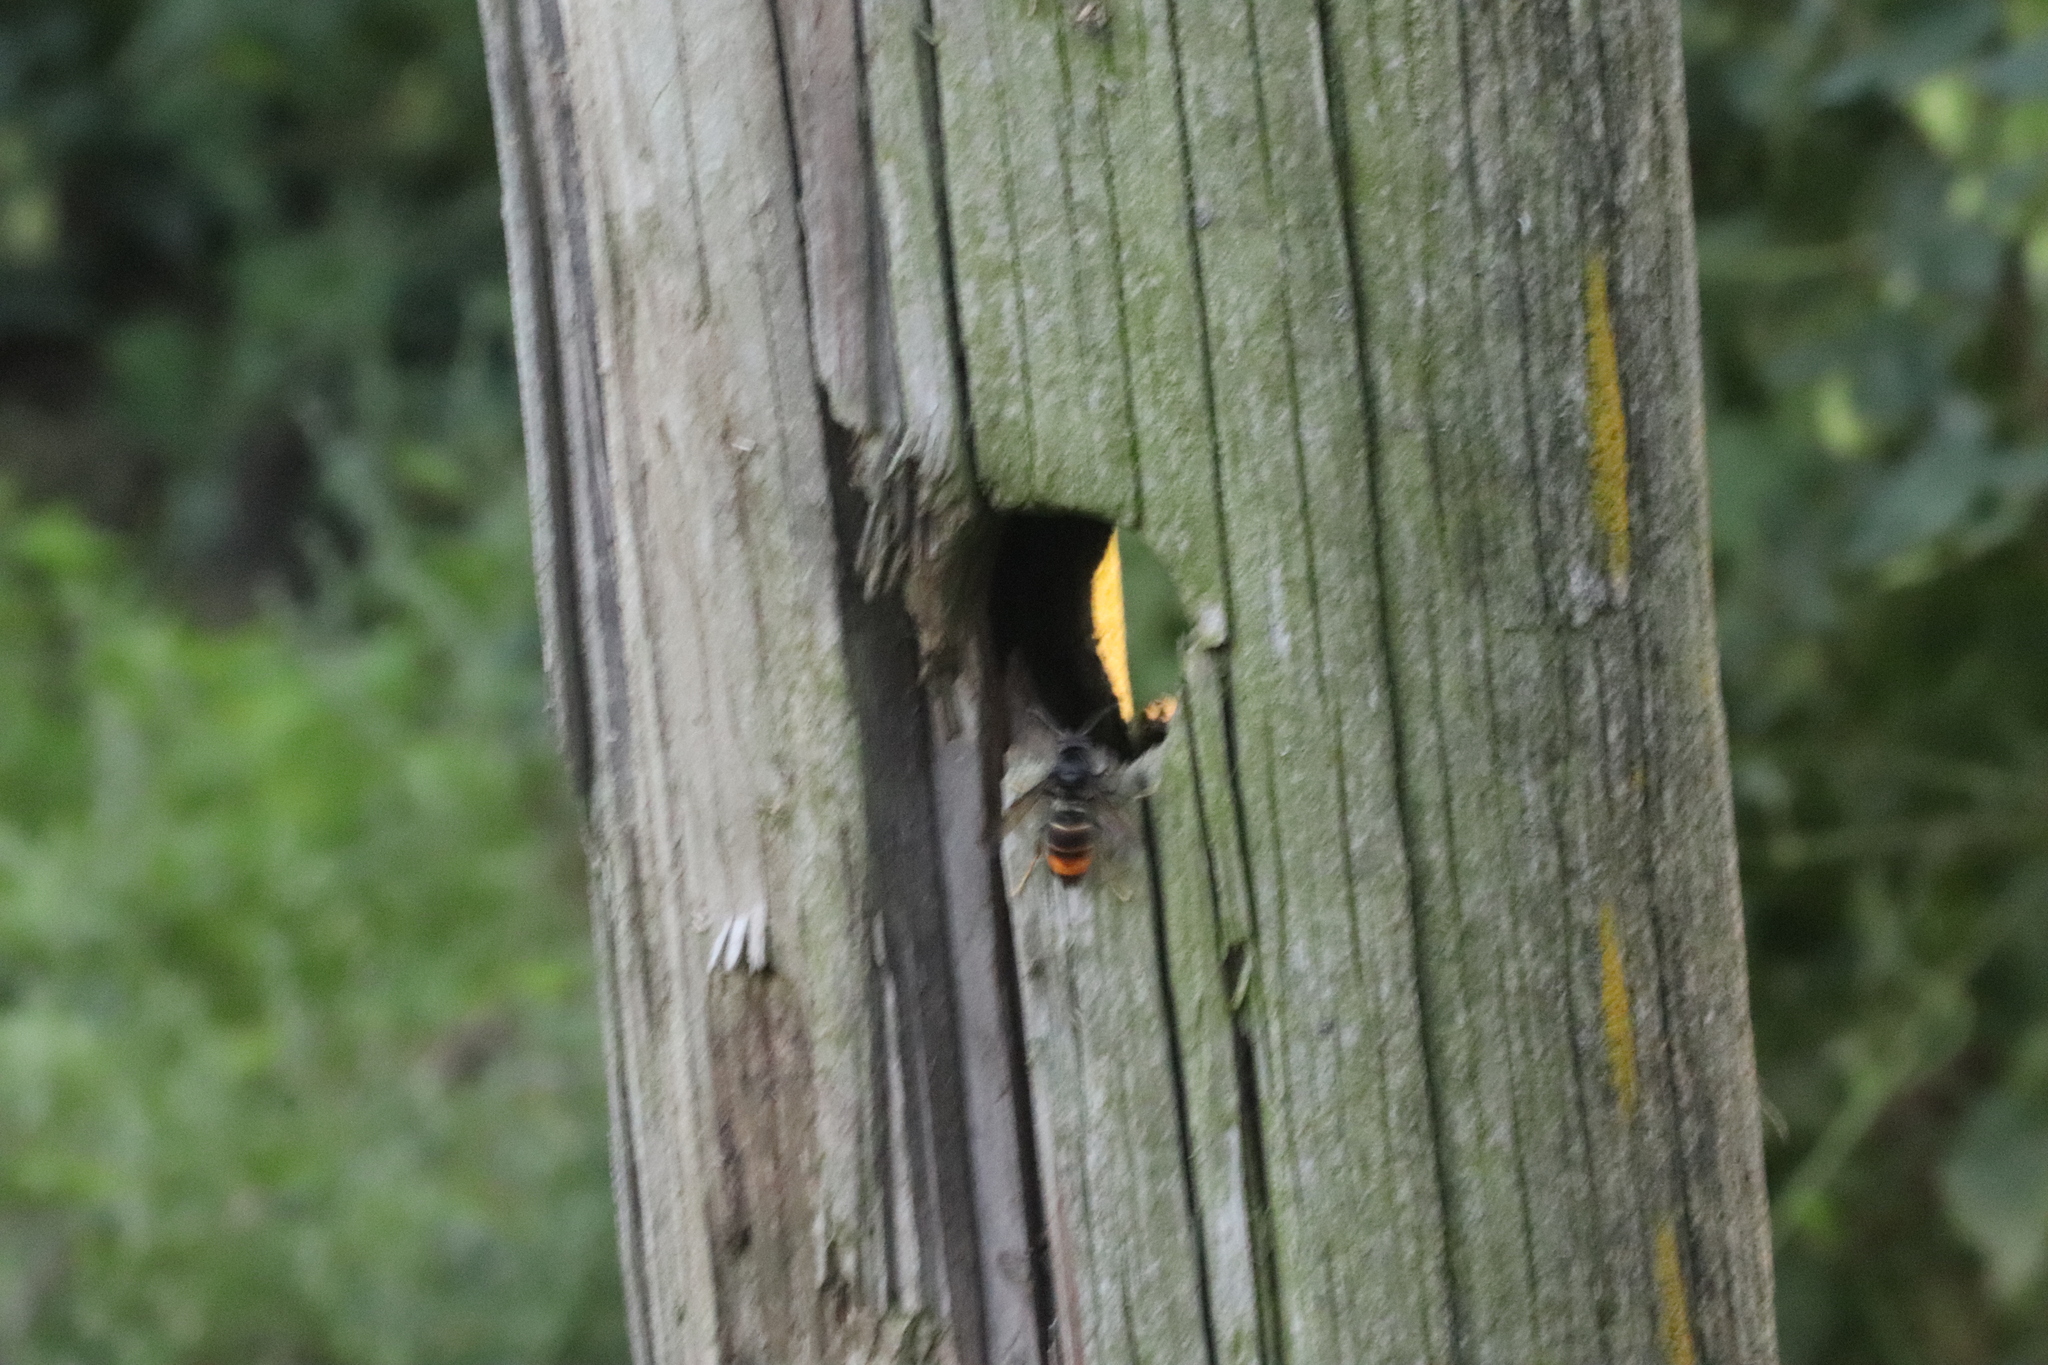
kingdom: Animalia
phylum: Arthropoda
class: Insecta
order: Hymenoptera
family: Vespidae
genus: Vespa
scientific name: Vespa velutina
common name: Asian hornet
